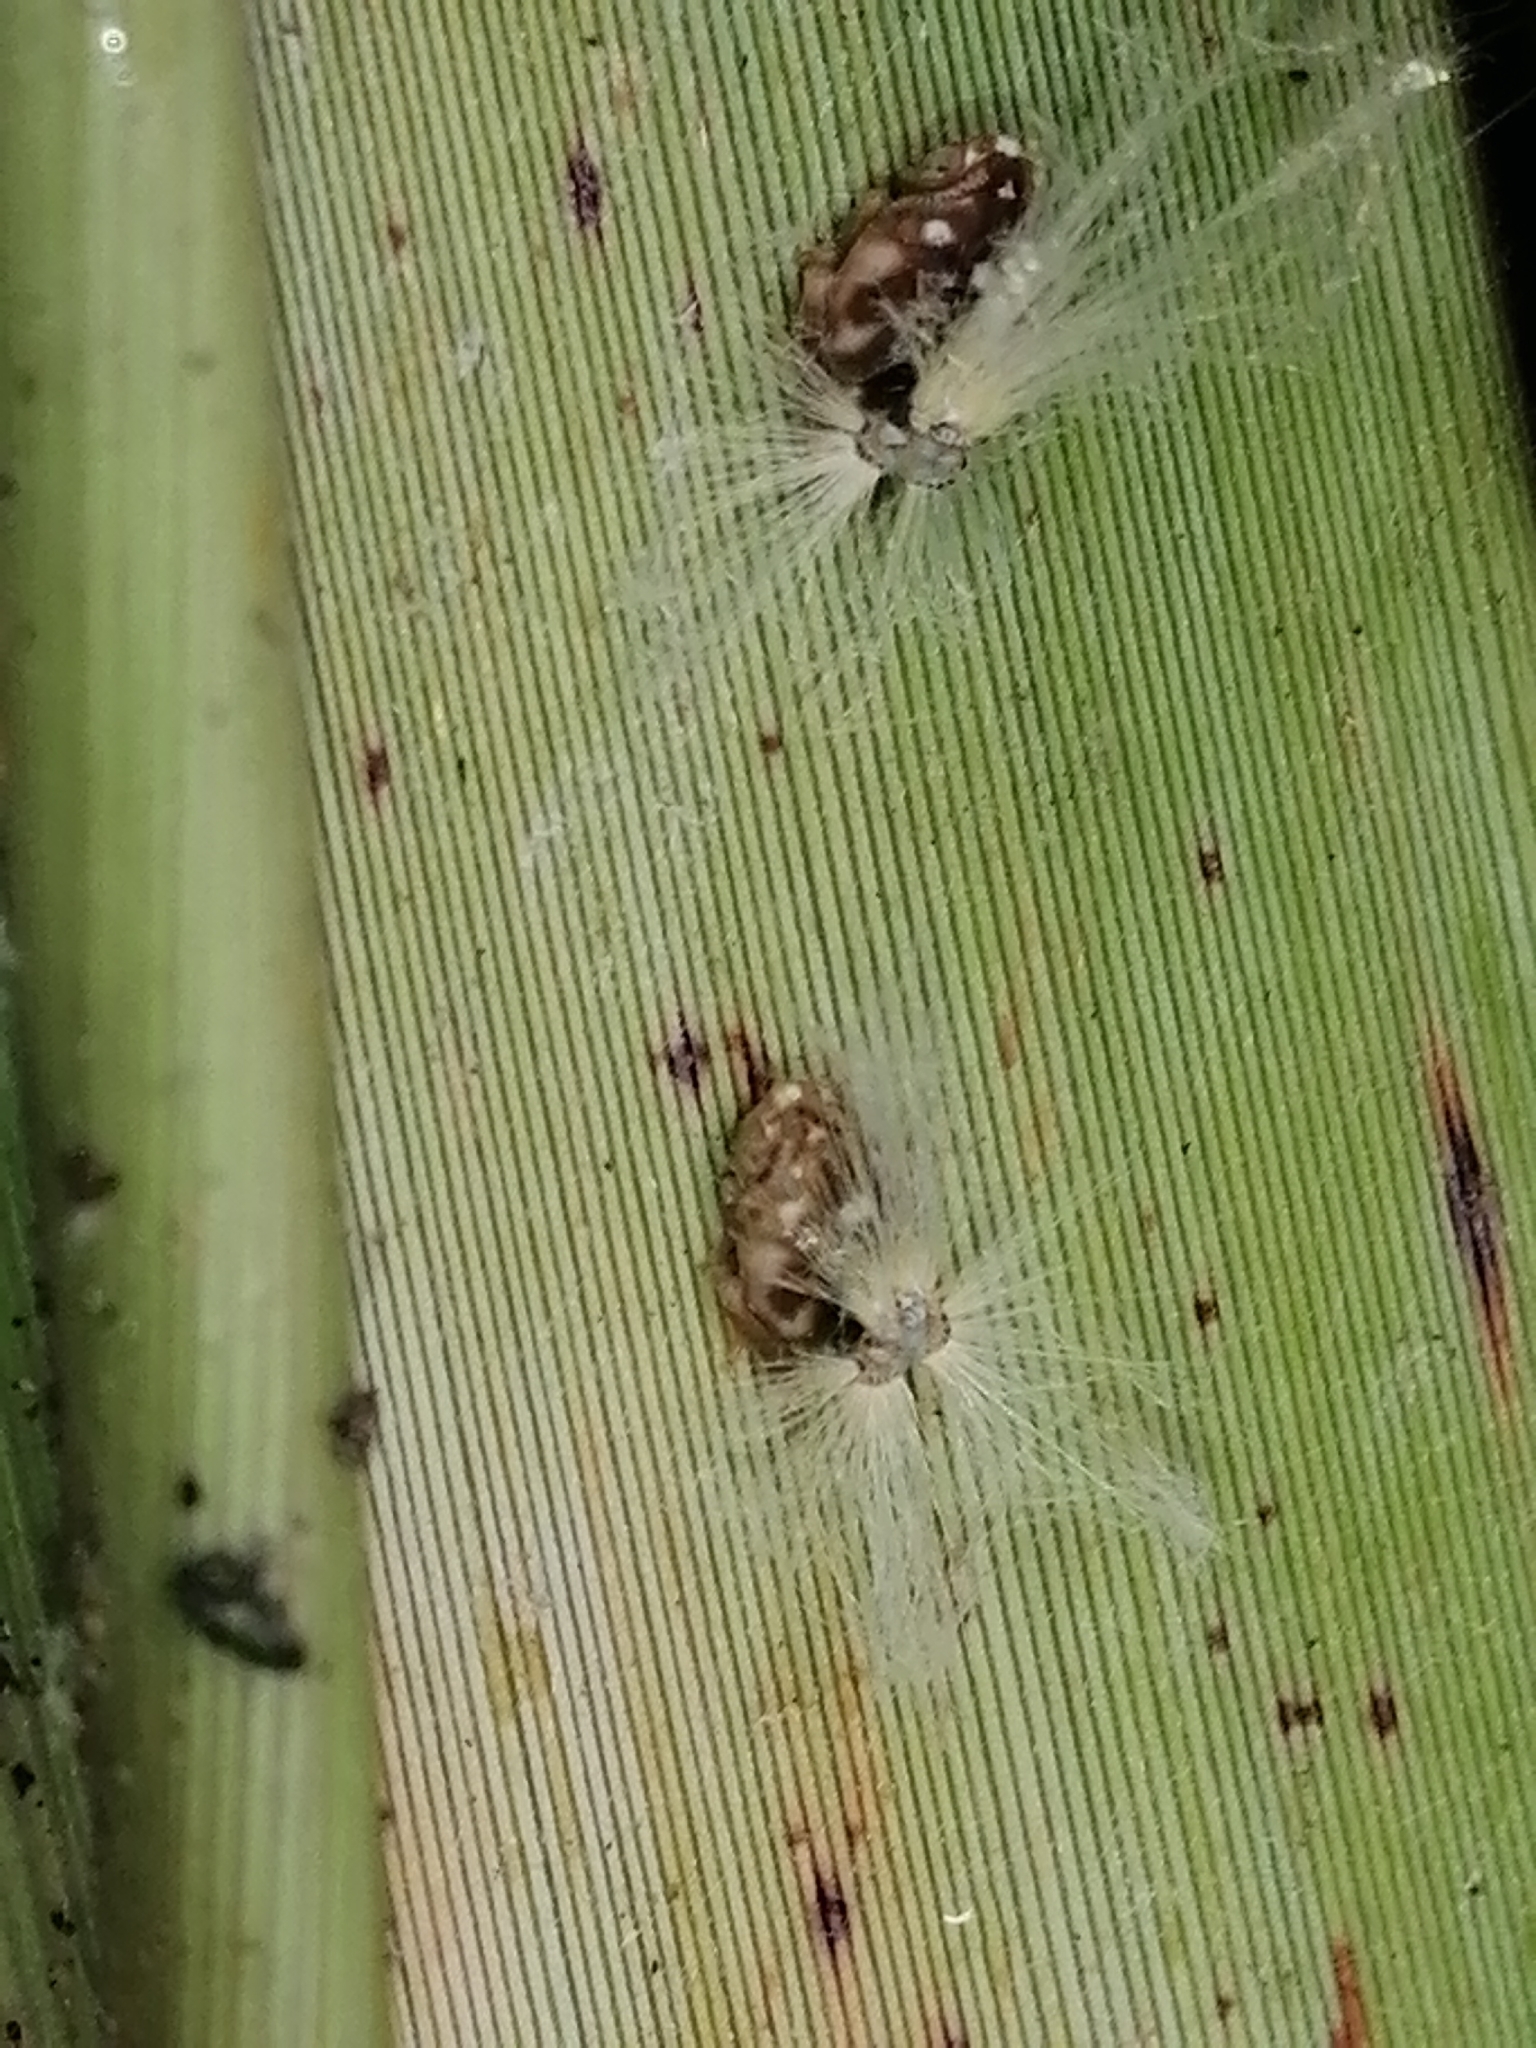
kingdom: Animalia
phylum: Arthropoda
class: Insecta
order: Hemiptera
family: Ricaniidae
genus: Scolypopa
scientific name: Scolypopa australis
